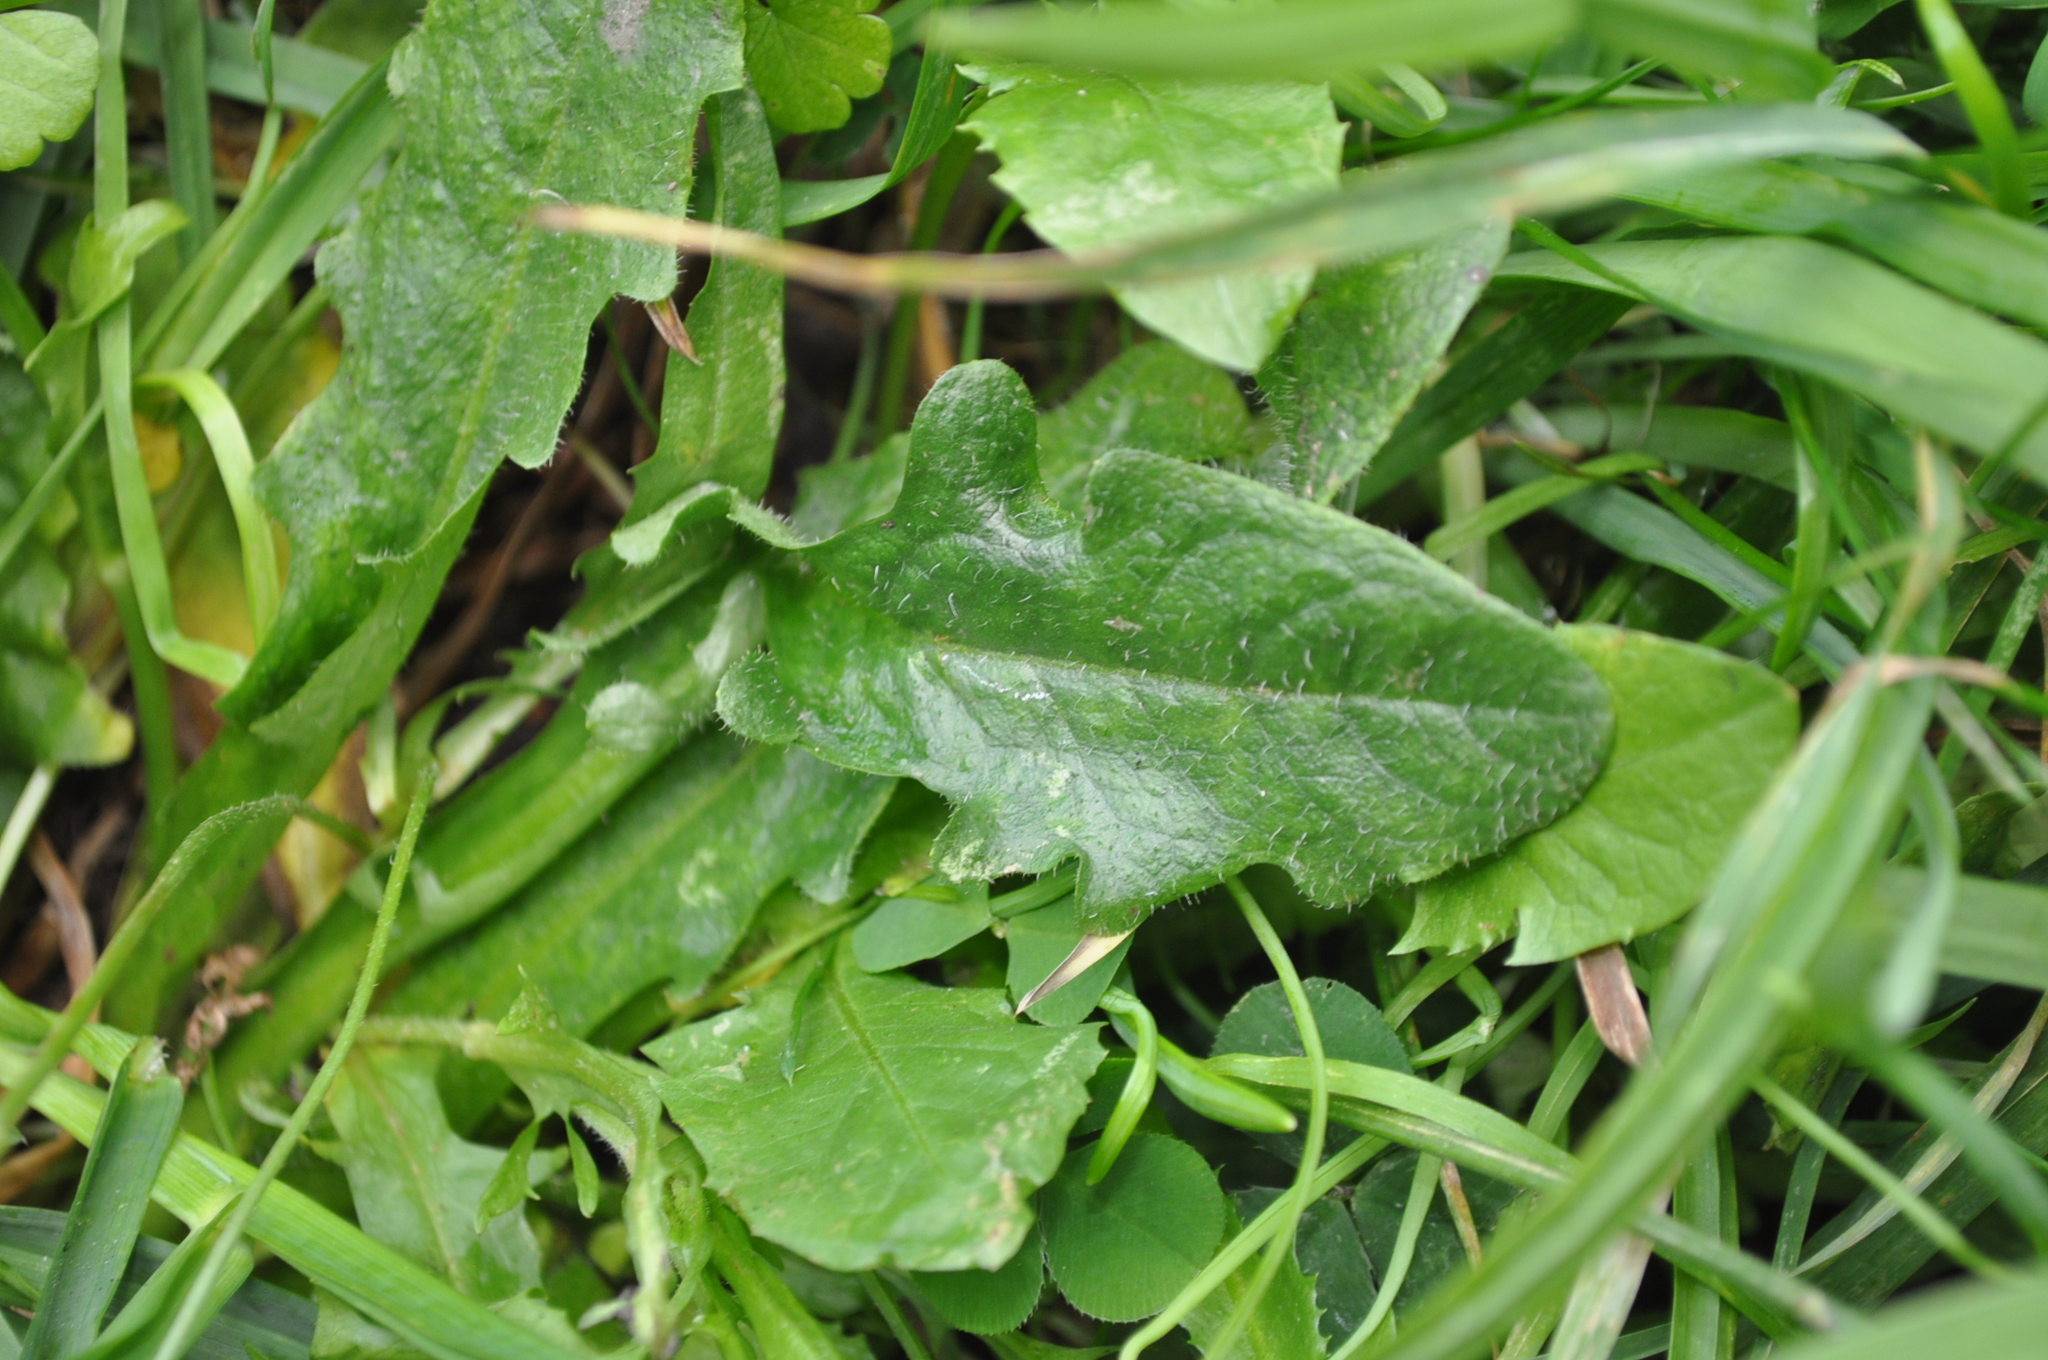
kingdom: Plantae
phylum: Tracheophyta
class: Magnoliopsida
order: Asterales
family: Asteraceae
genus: Hypochaeris
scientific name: Hypochaeris radicata
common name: Flatweed
